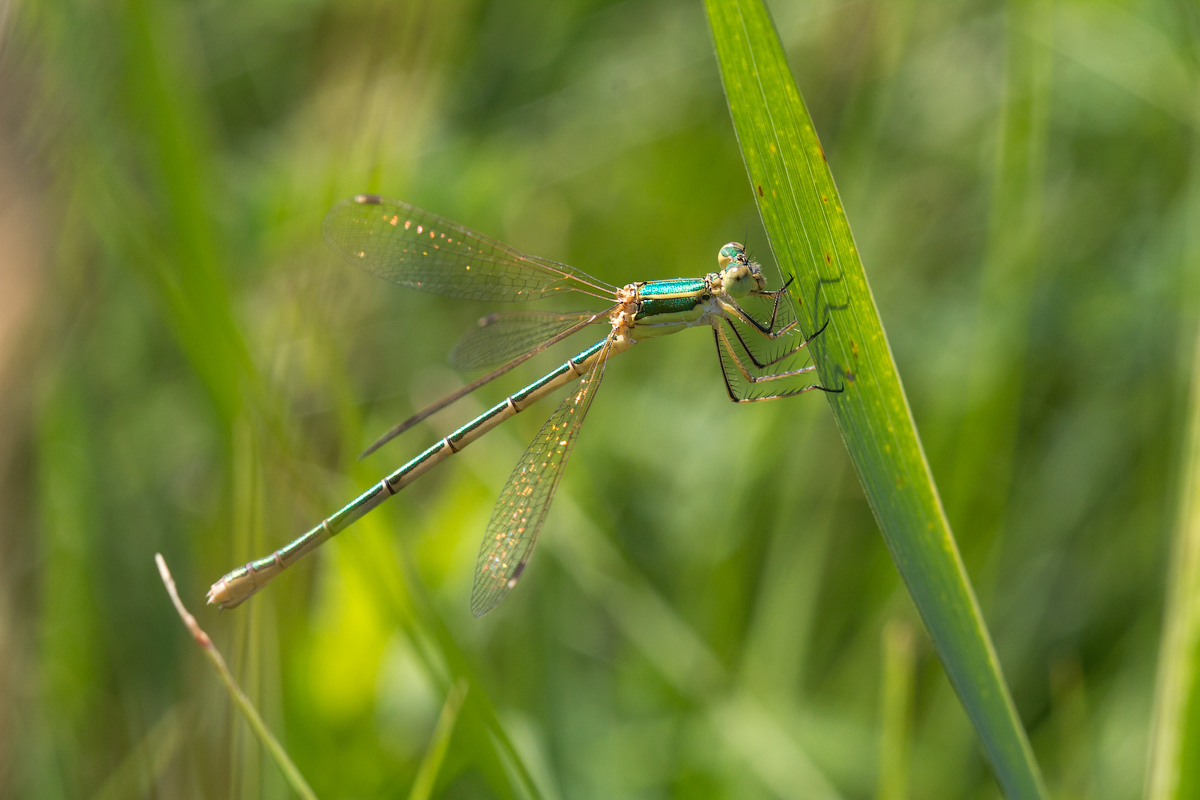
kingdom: Animalia
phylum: Arthropoda
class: Insecta
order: Odonata
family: Lestidae
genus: Lestes
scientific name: Lestes barbarus
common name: Migrant spreadwing
